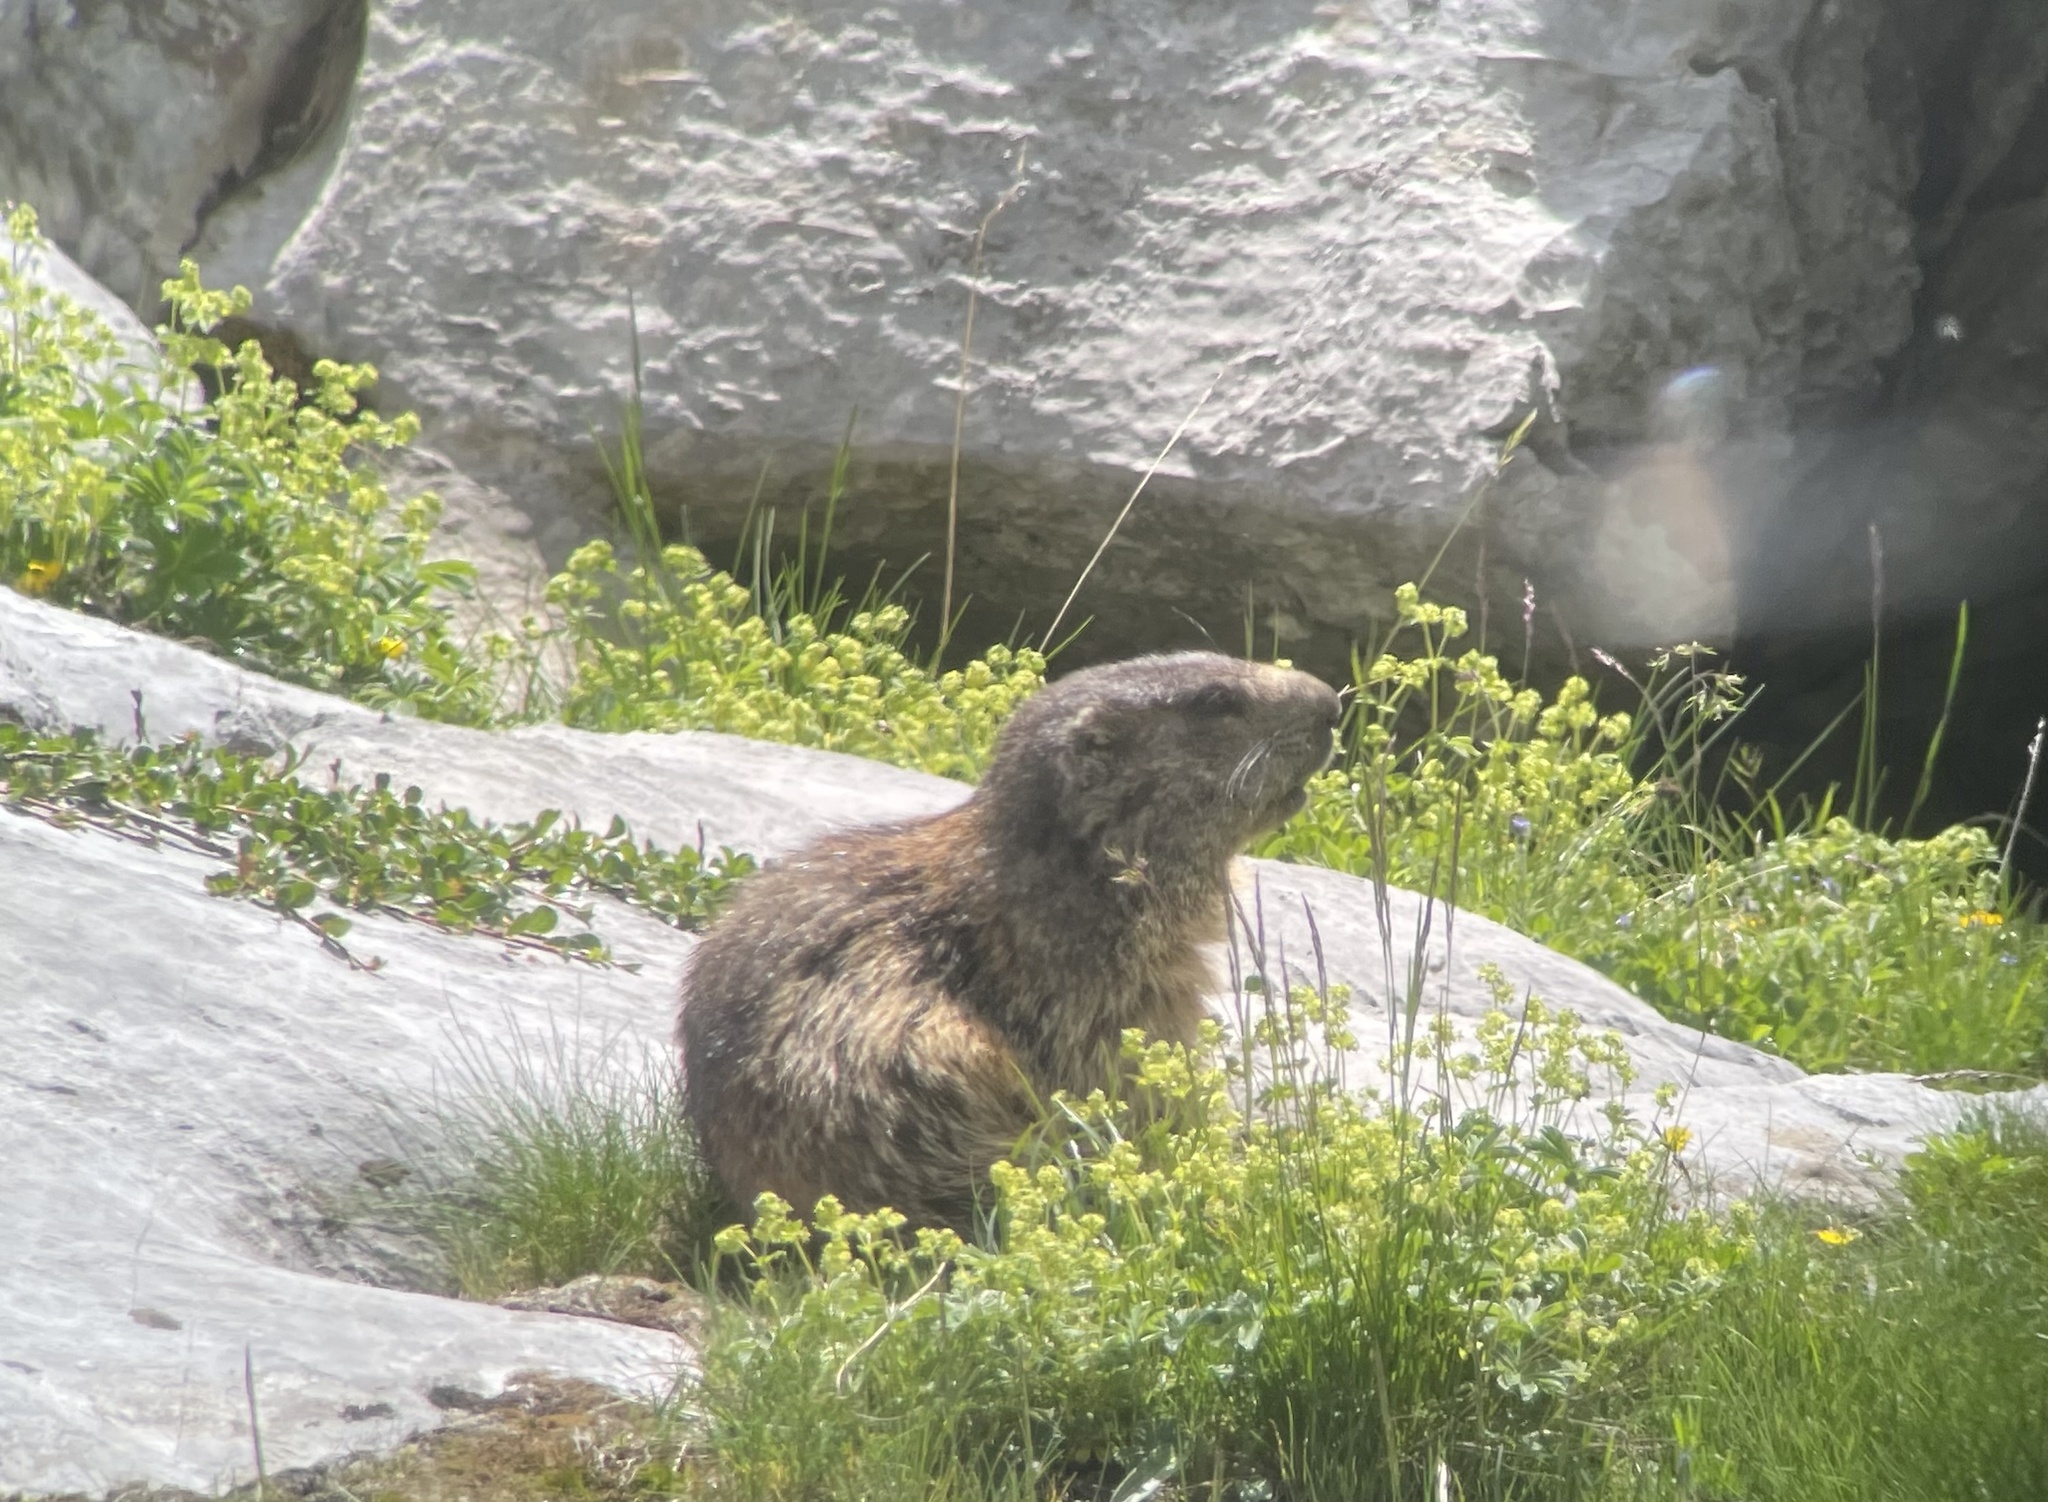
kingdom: Animalia
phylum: Chordata
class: Mammalia
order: Rodentia
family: Sciuridae
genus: Marmota
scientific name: Marmota marmota
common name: Alpine marmot
